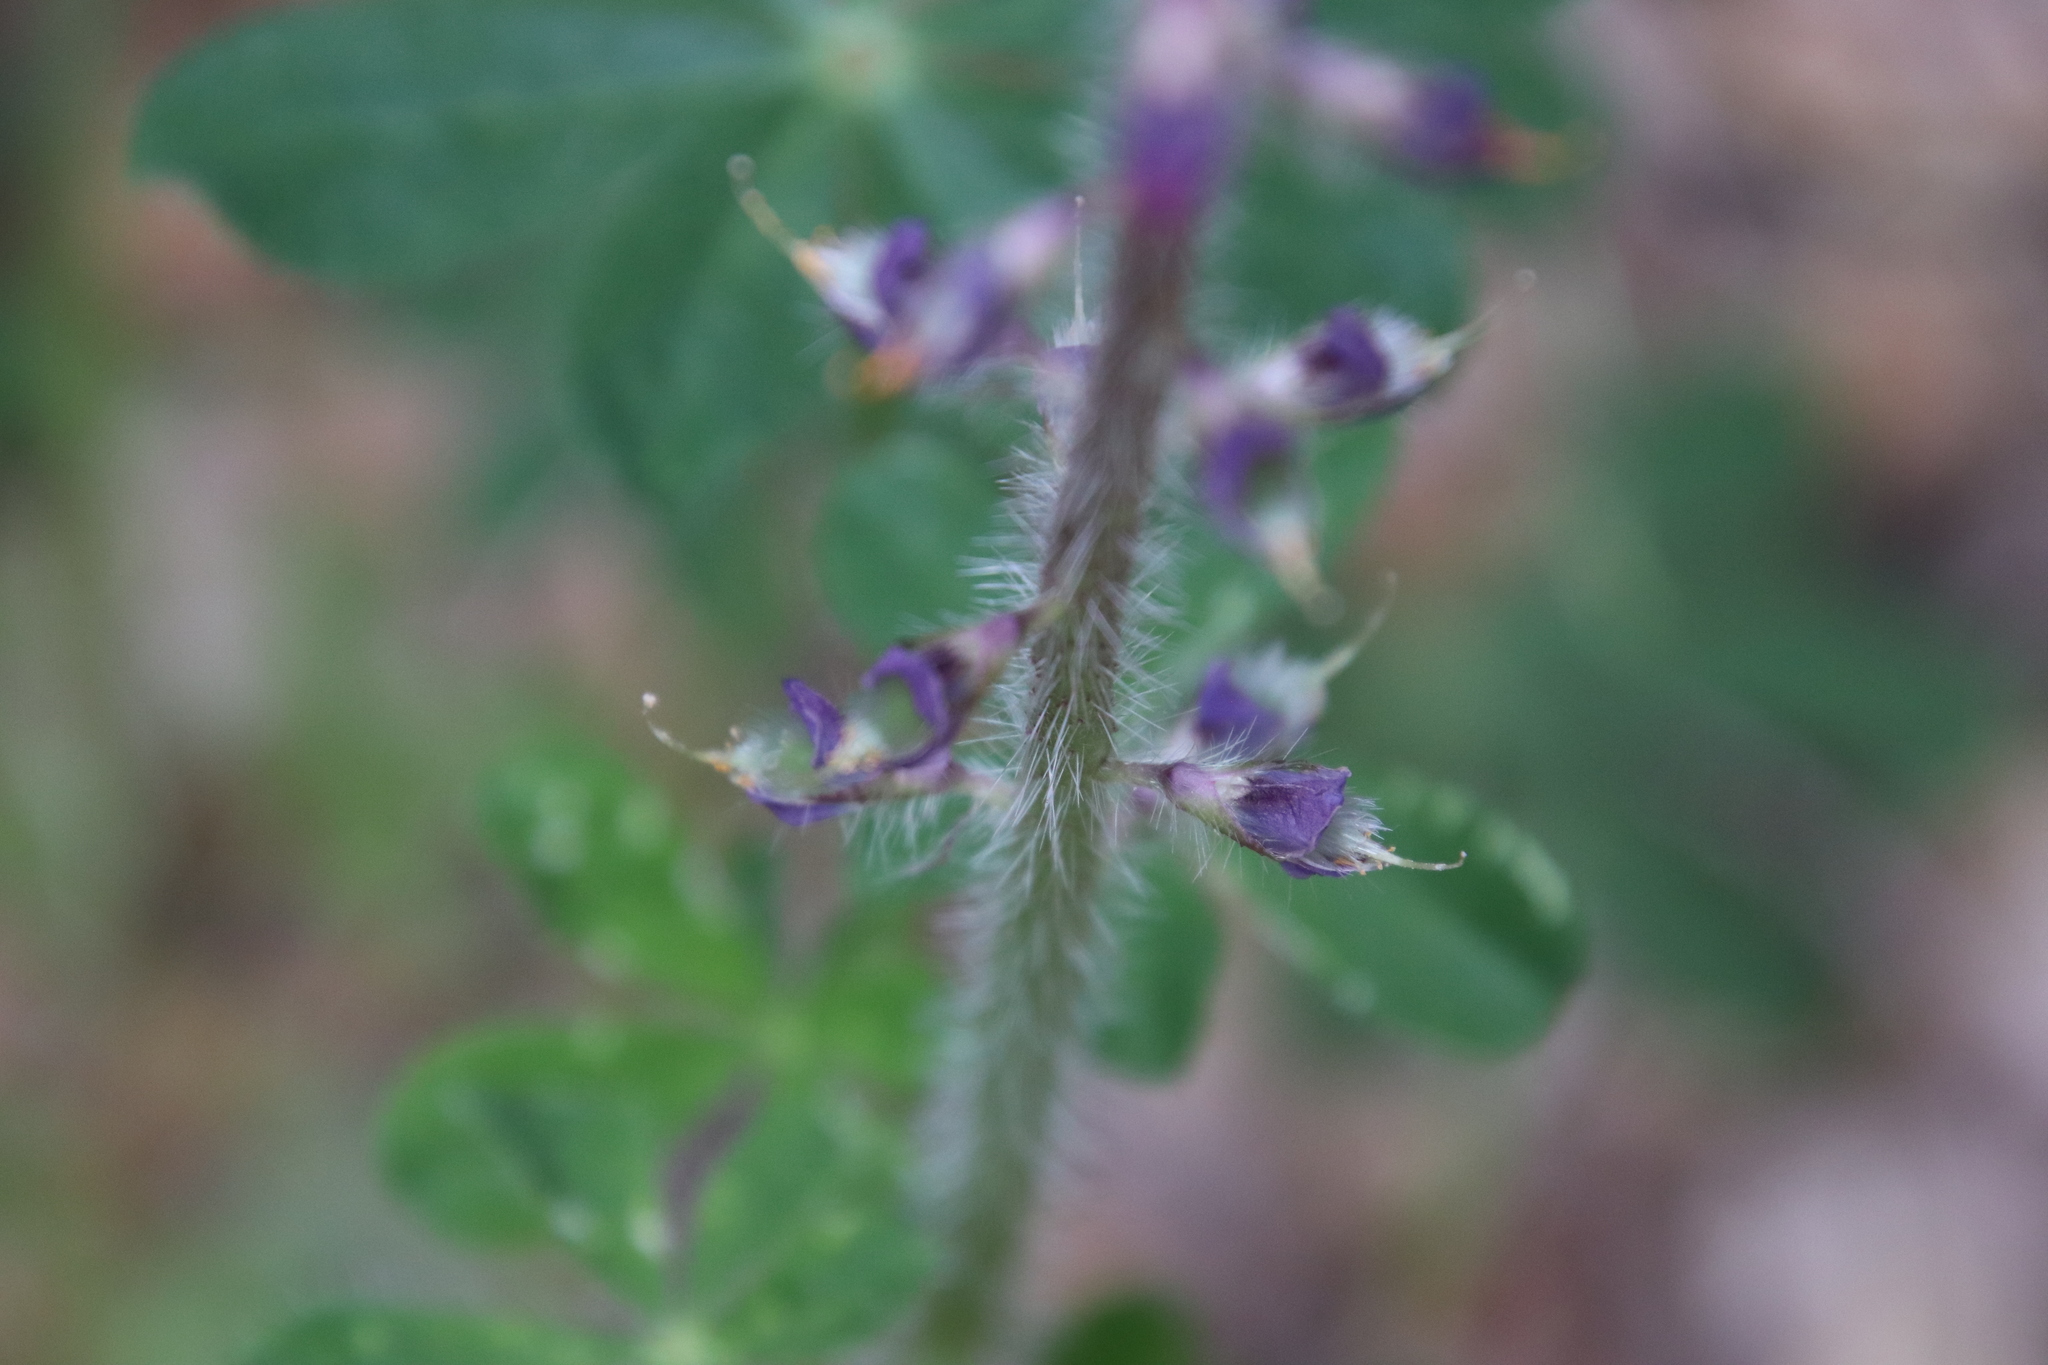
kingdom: Plantae
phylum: Tracheophyta
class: Magnoliopsida
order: Fabales
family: Fabaceae
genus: Lupinus
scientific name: Lupinus hirsutissimus
